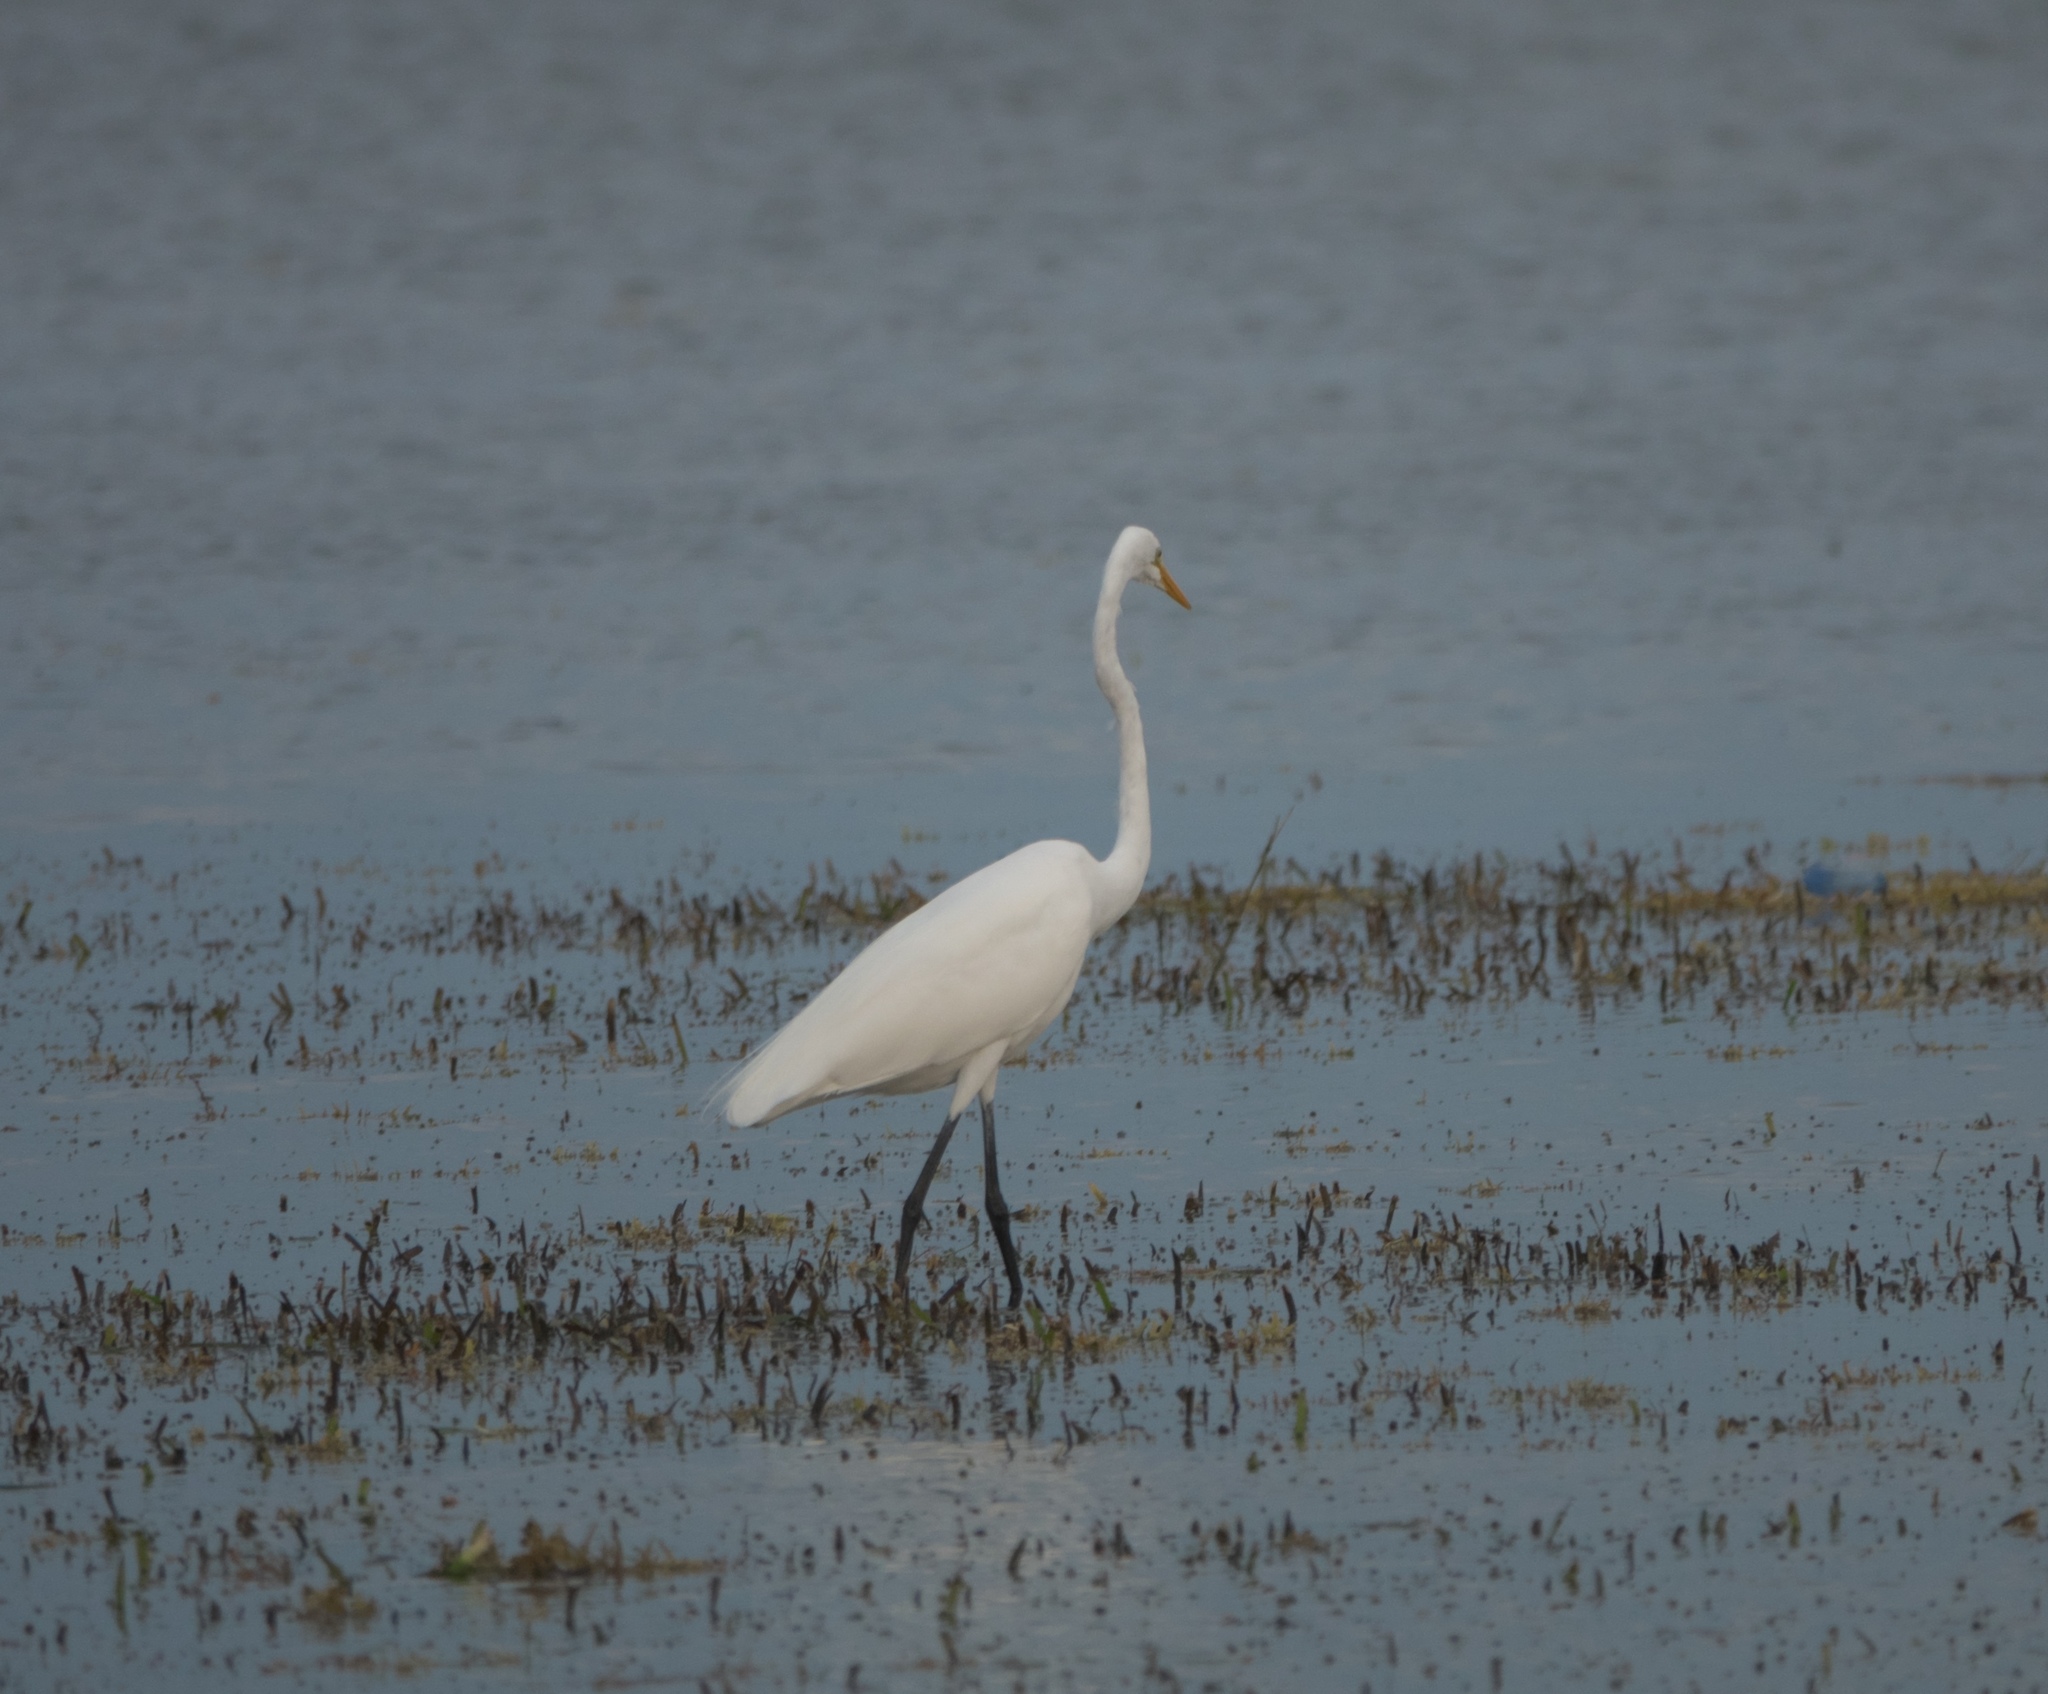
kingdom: Animalia
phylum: Chordata
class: Aves
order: Pelecaniformes
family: Ardeidae
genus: Ardea
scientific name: Ardea alba
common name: Great egret
